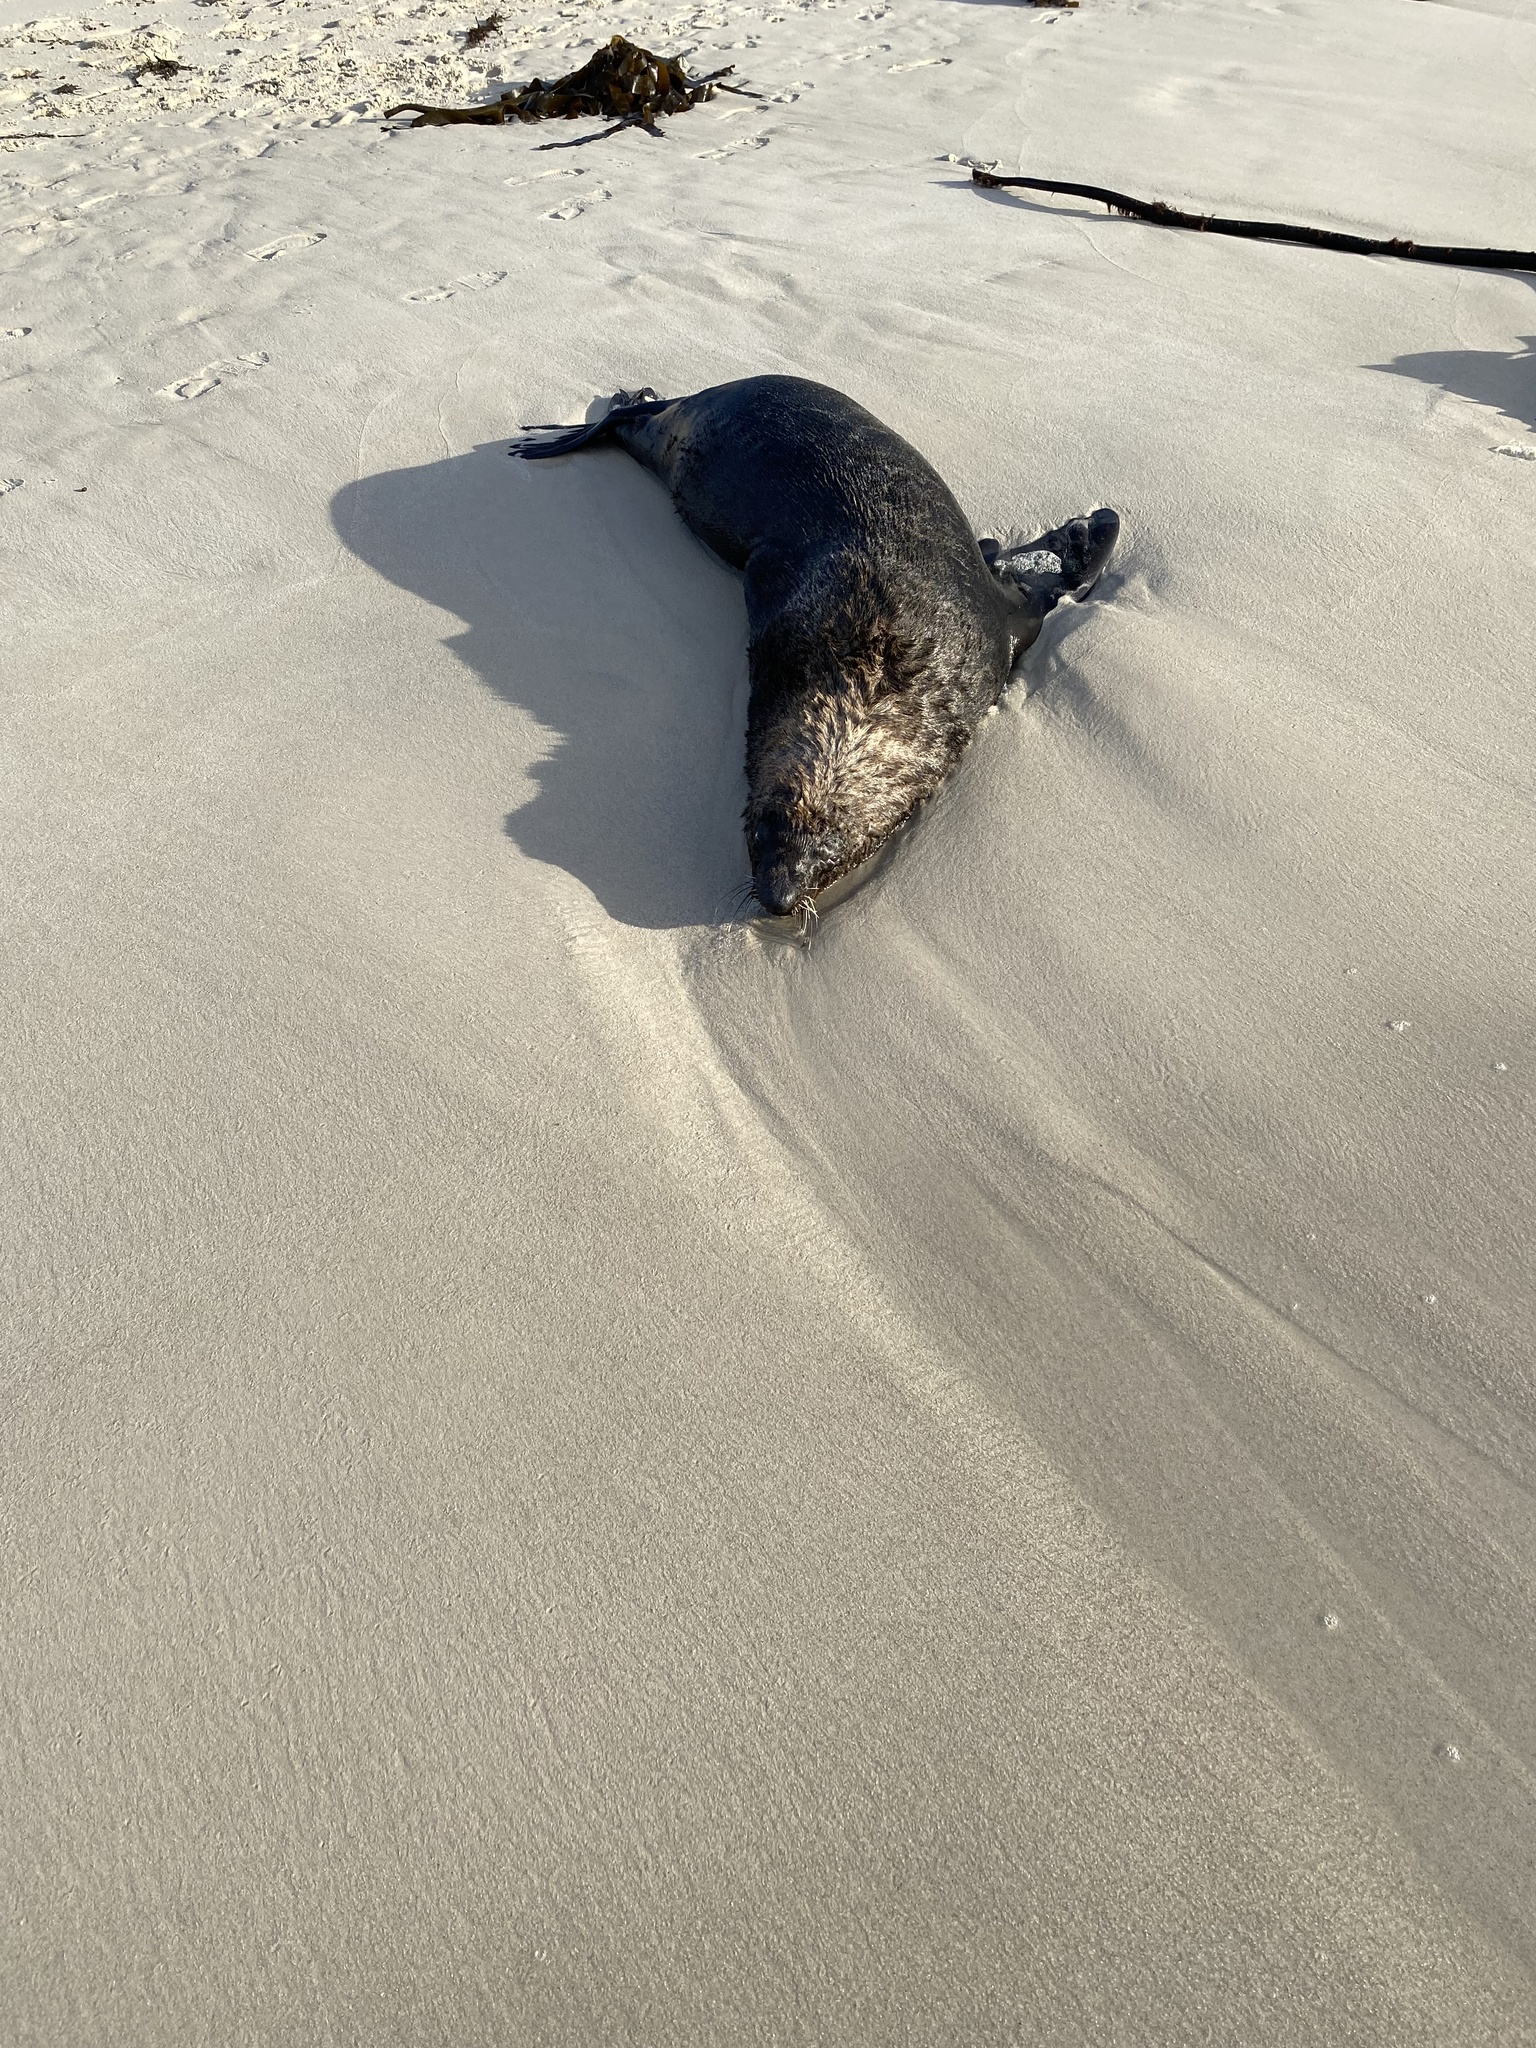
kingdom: Animalia
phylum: Chordata
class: Mammalia
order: Carnivora
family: Otariidae
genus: Arctocephalus
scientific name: Arctocephalus pusillus
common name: Brown fur seal
